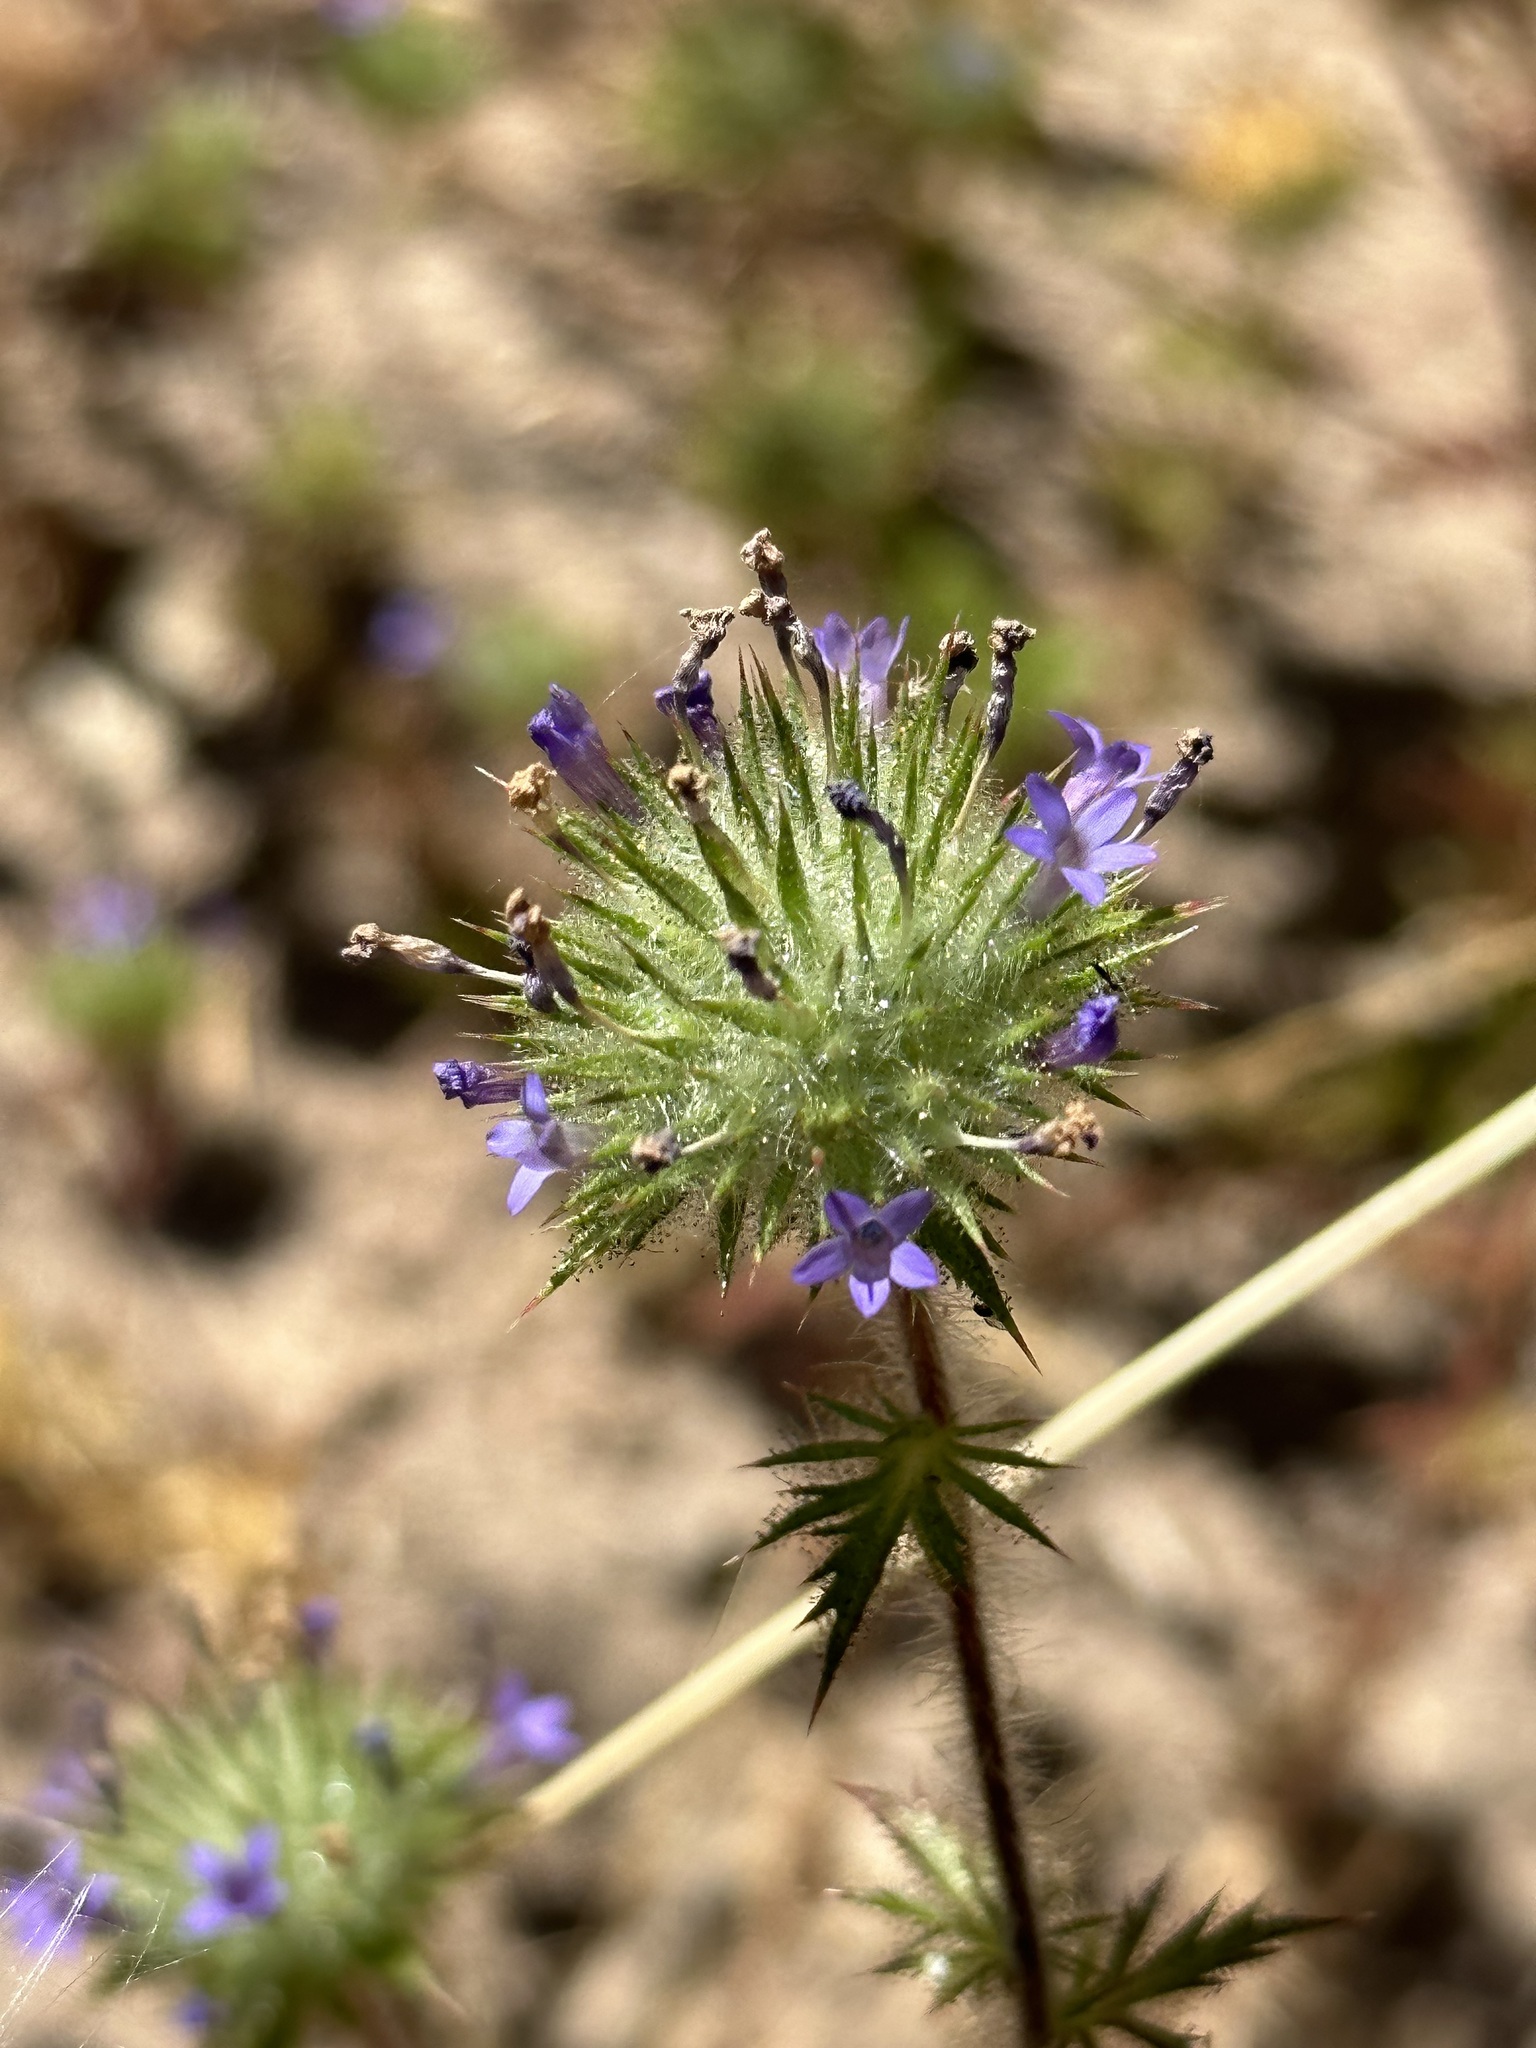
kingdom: Plantae
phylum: Tracheophyta
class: Magnoliopsida
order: Ericales
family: Polemoniaceae
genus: Navarretia
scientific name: Navarretia squarrosa
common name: Skunkweed
